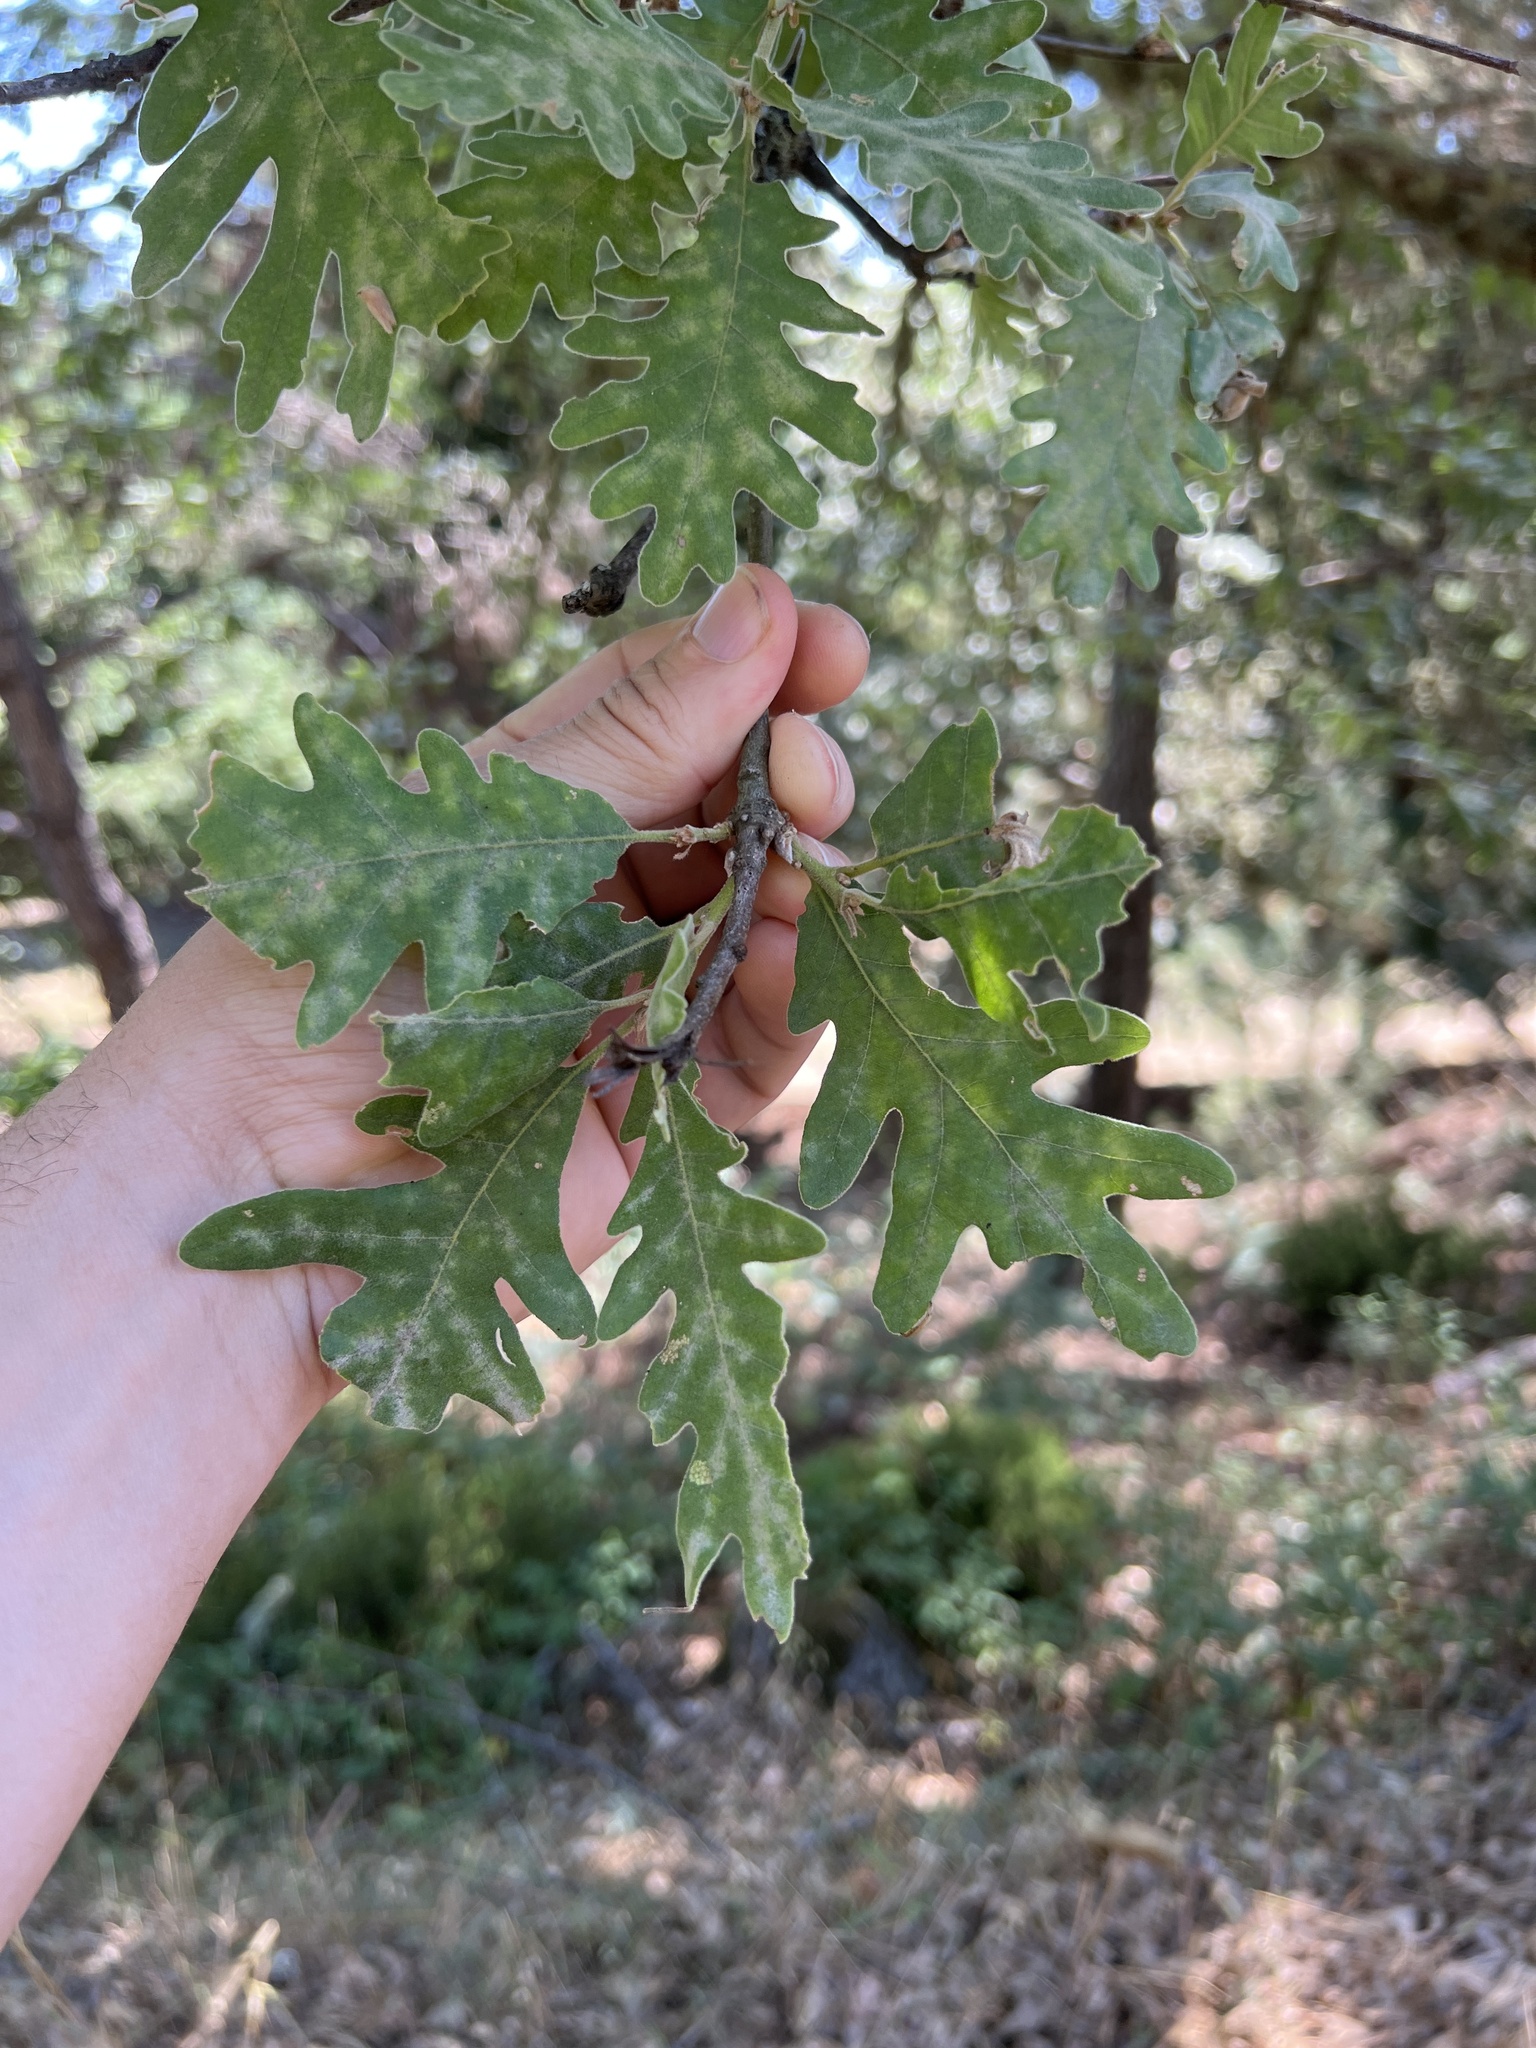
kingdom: Plantae
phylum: Tracheophyta
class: Magnoliopsida
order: Fagales
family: Fagaceae
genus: Quercus
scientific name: Quercus pyrenaica
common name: Pyrenean oak
